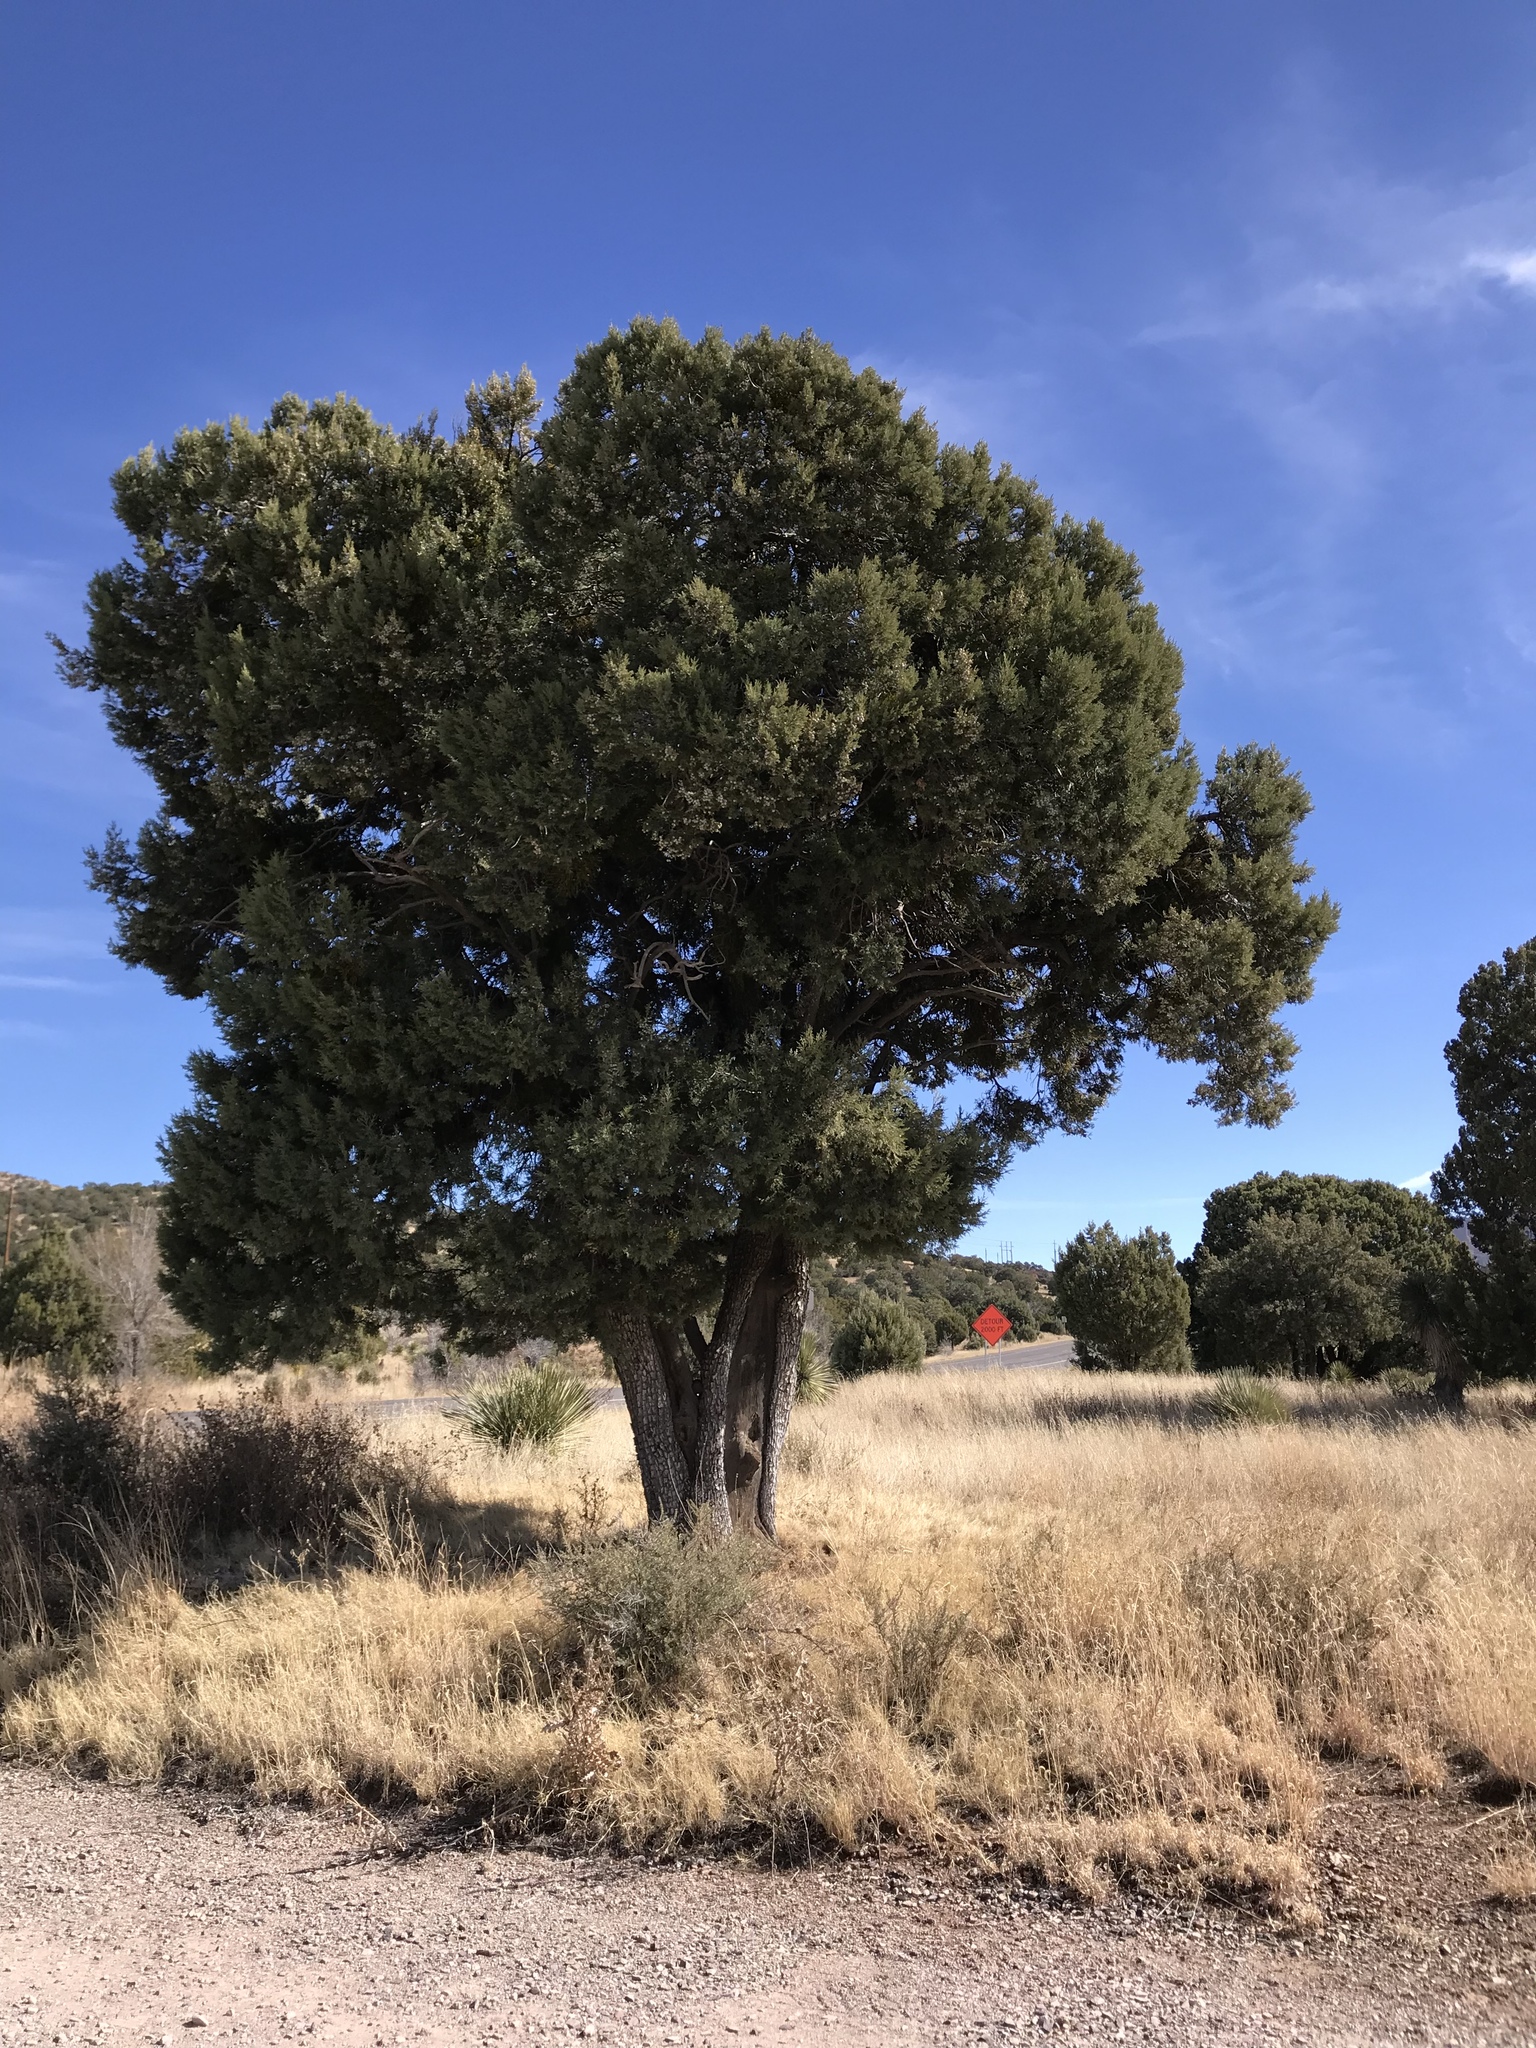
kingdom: Plantae
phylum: Tracheophyta
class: Pinopsida
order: Pinales
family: Cupressaceae
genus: Juniperus
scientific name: Juniperus deppeana
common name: Alligator juniper
